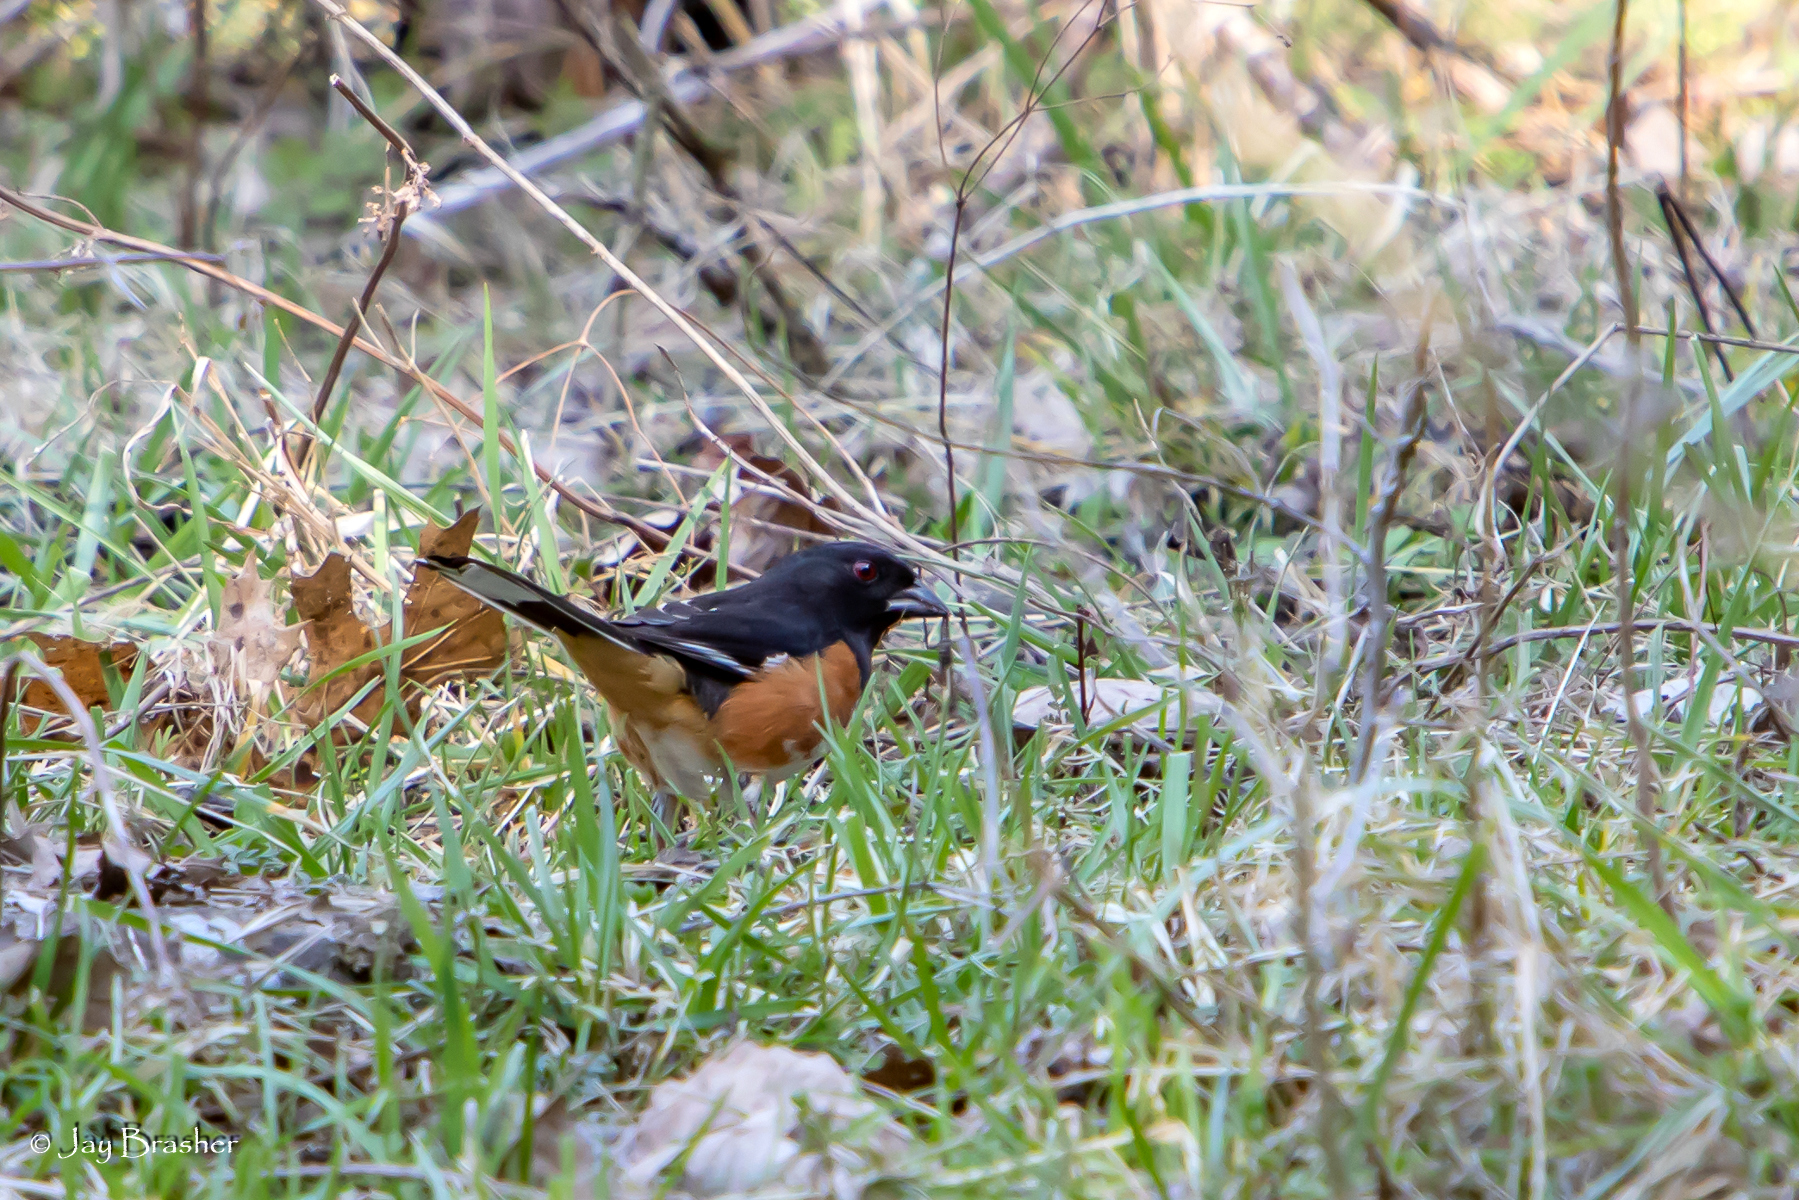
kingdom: Animalia
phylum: Chordata
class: Aves
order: Passeriformes
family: Passerellidae
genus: Pipilo
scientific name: Pipilo erythrophthalmus
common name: Eastern towhee
